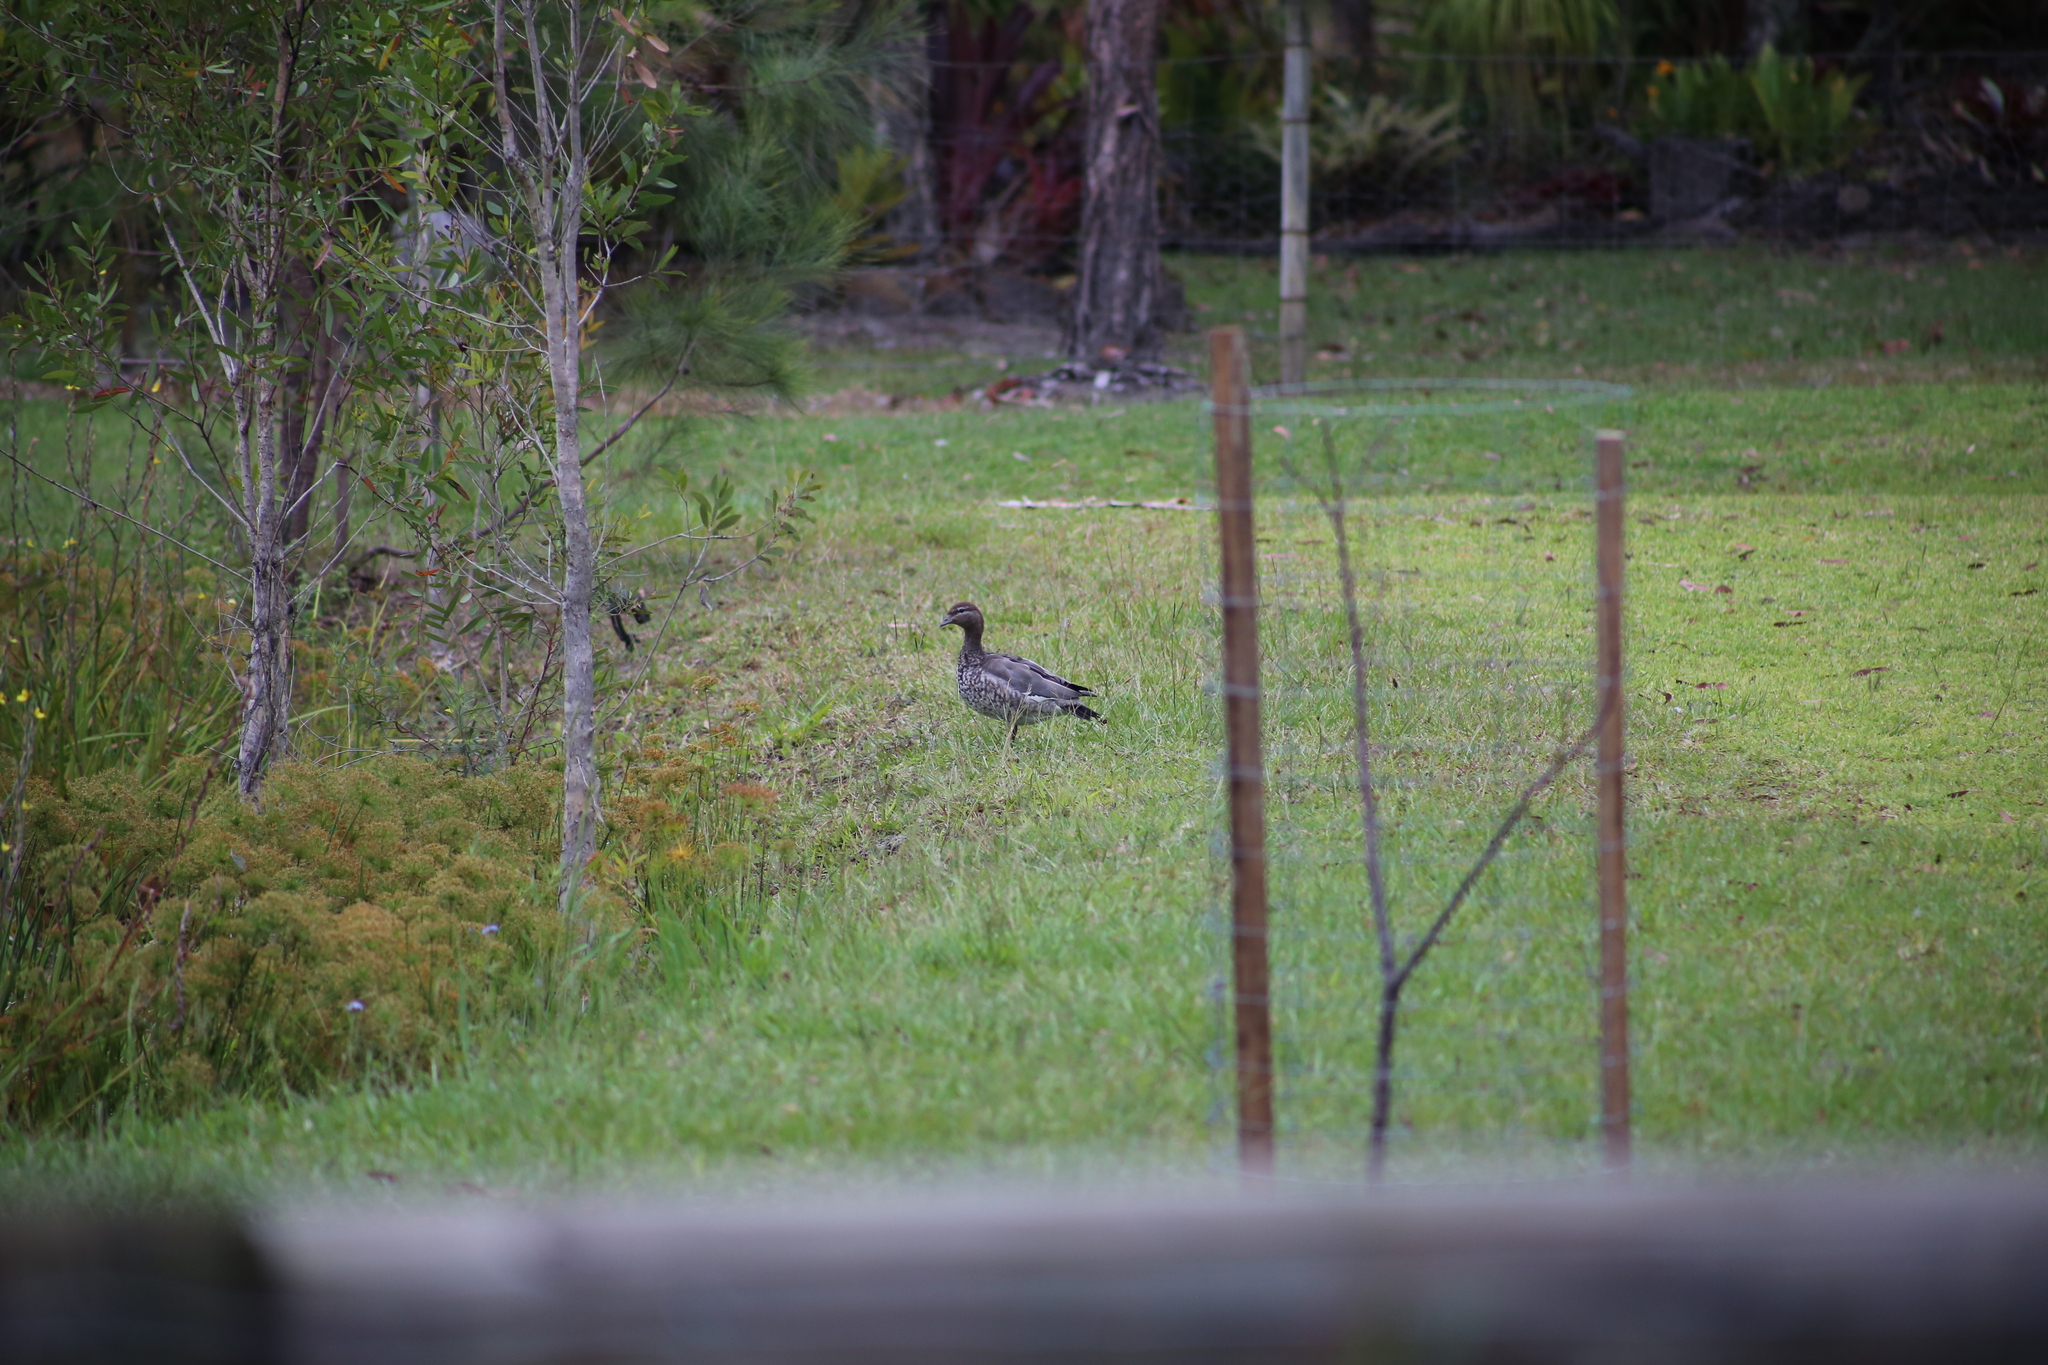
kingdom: Animalia
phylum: Chordata
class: Aves
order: Anseriformes
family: Anatidae
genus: Chenonetta
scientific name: Chenonetta jubata
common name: Maned duck
